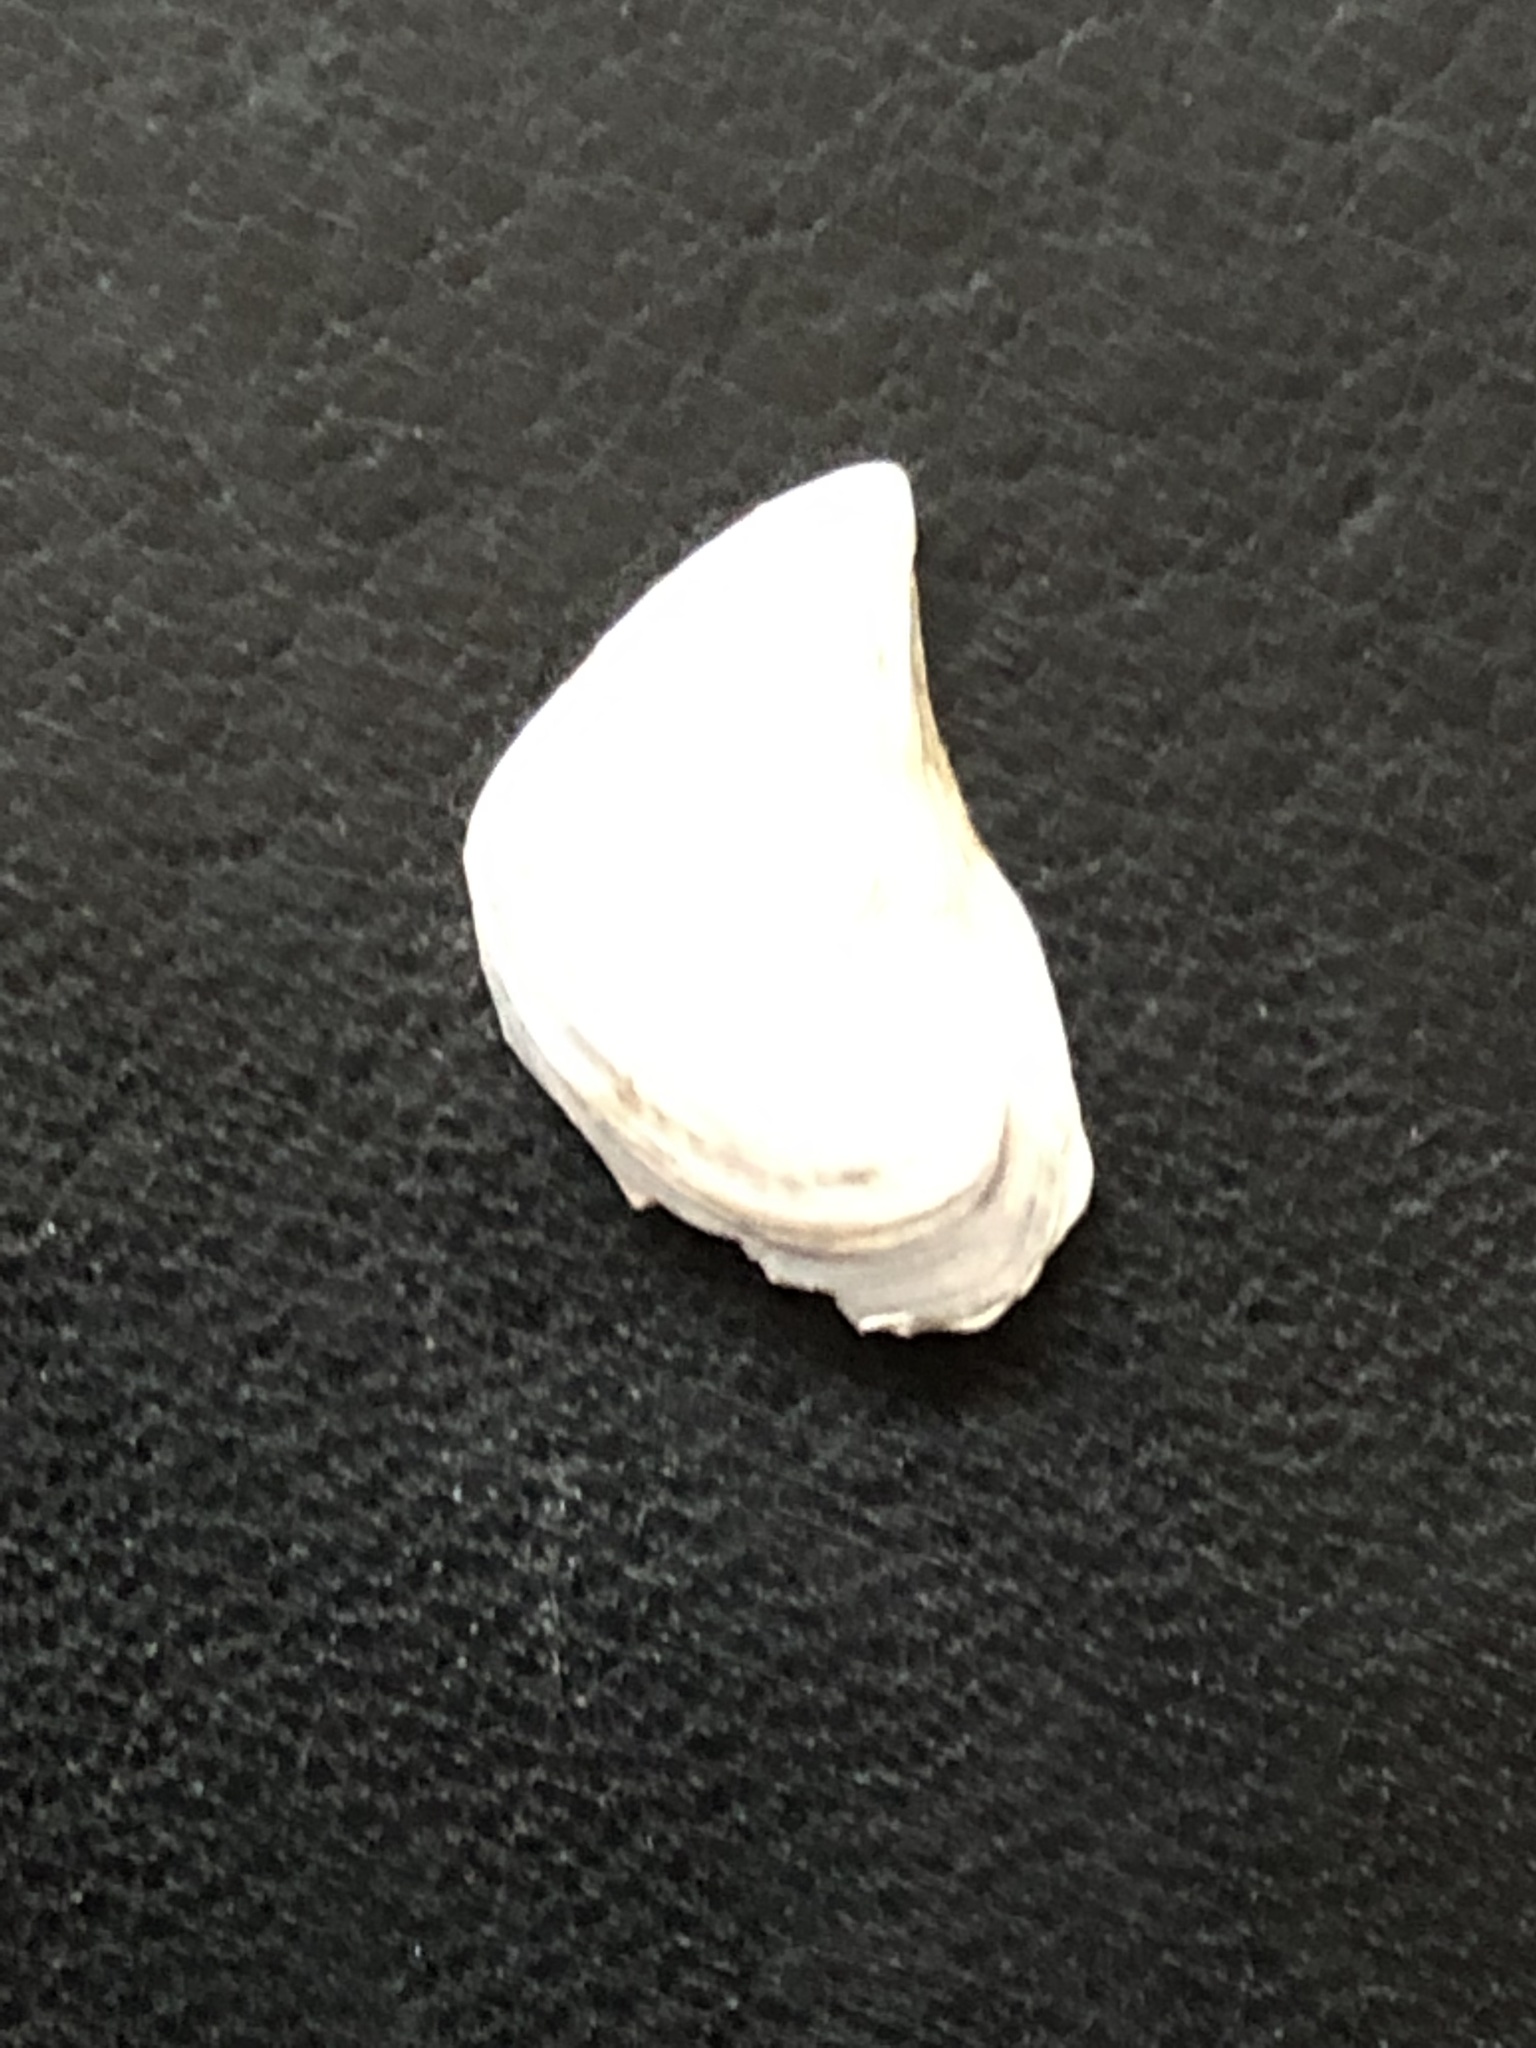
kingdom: Animalia
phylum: Mollusca
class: Bivalvia
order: Myida
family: Dreissenidae
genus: Dreissena
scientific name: Dreissena bugensis
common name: Quagga mussel
